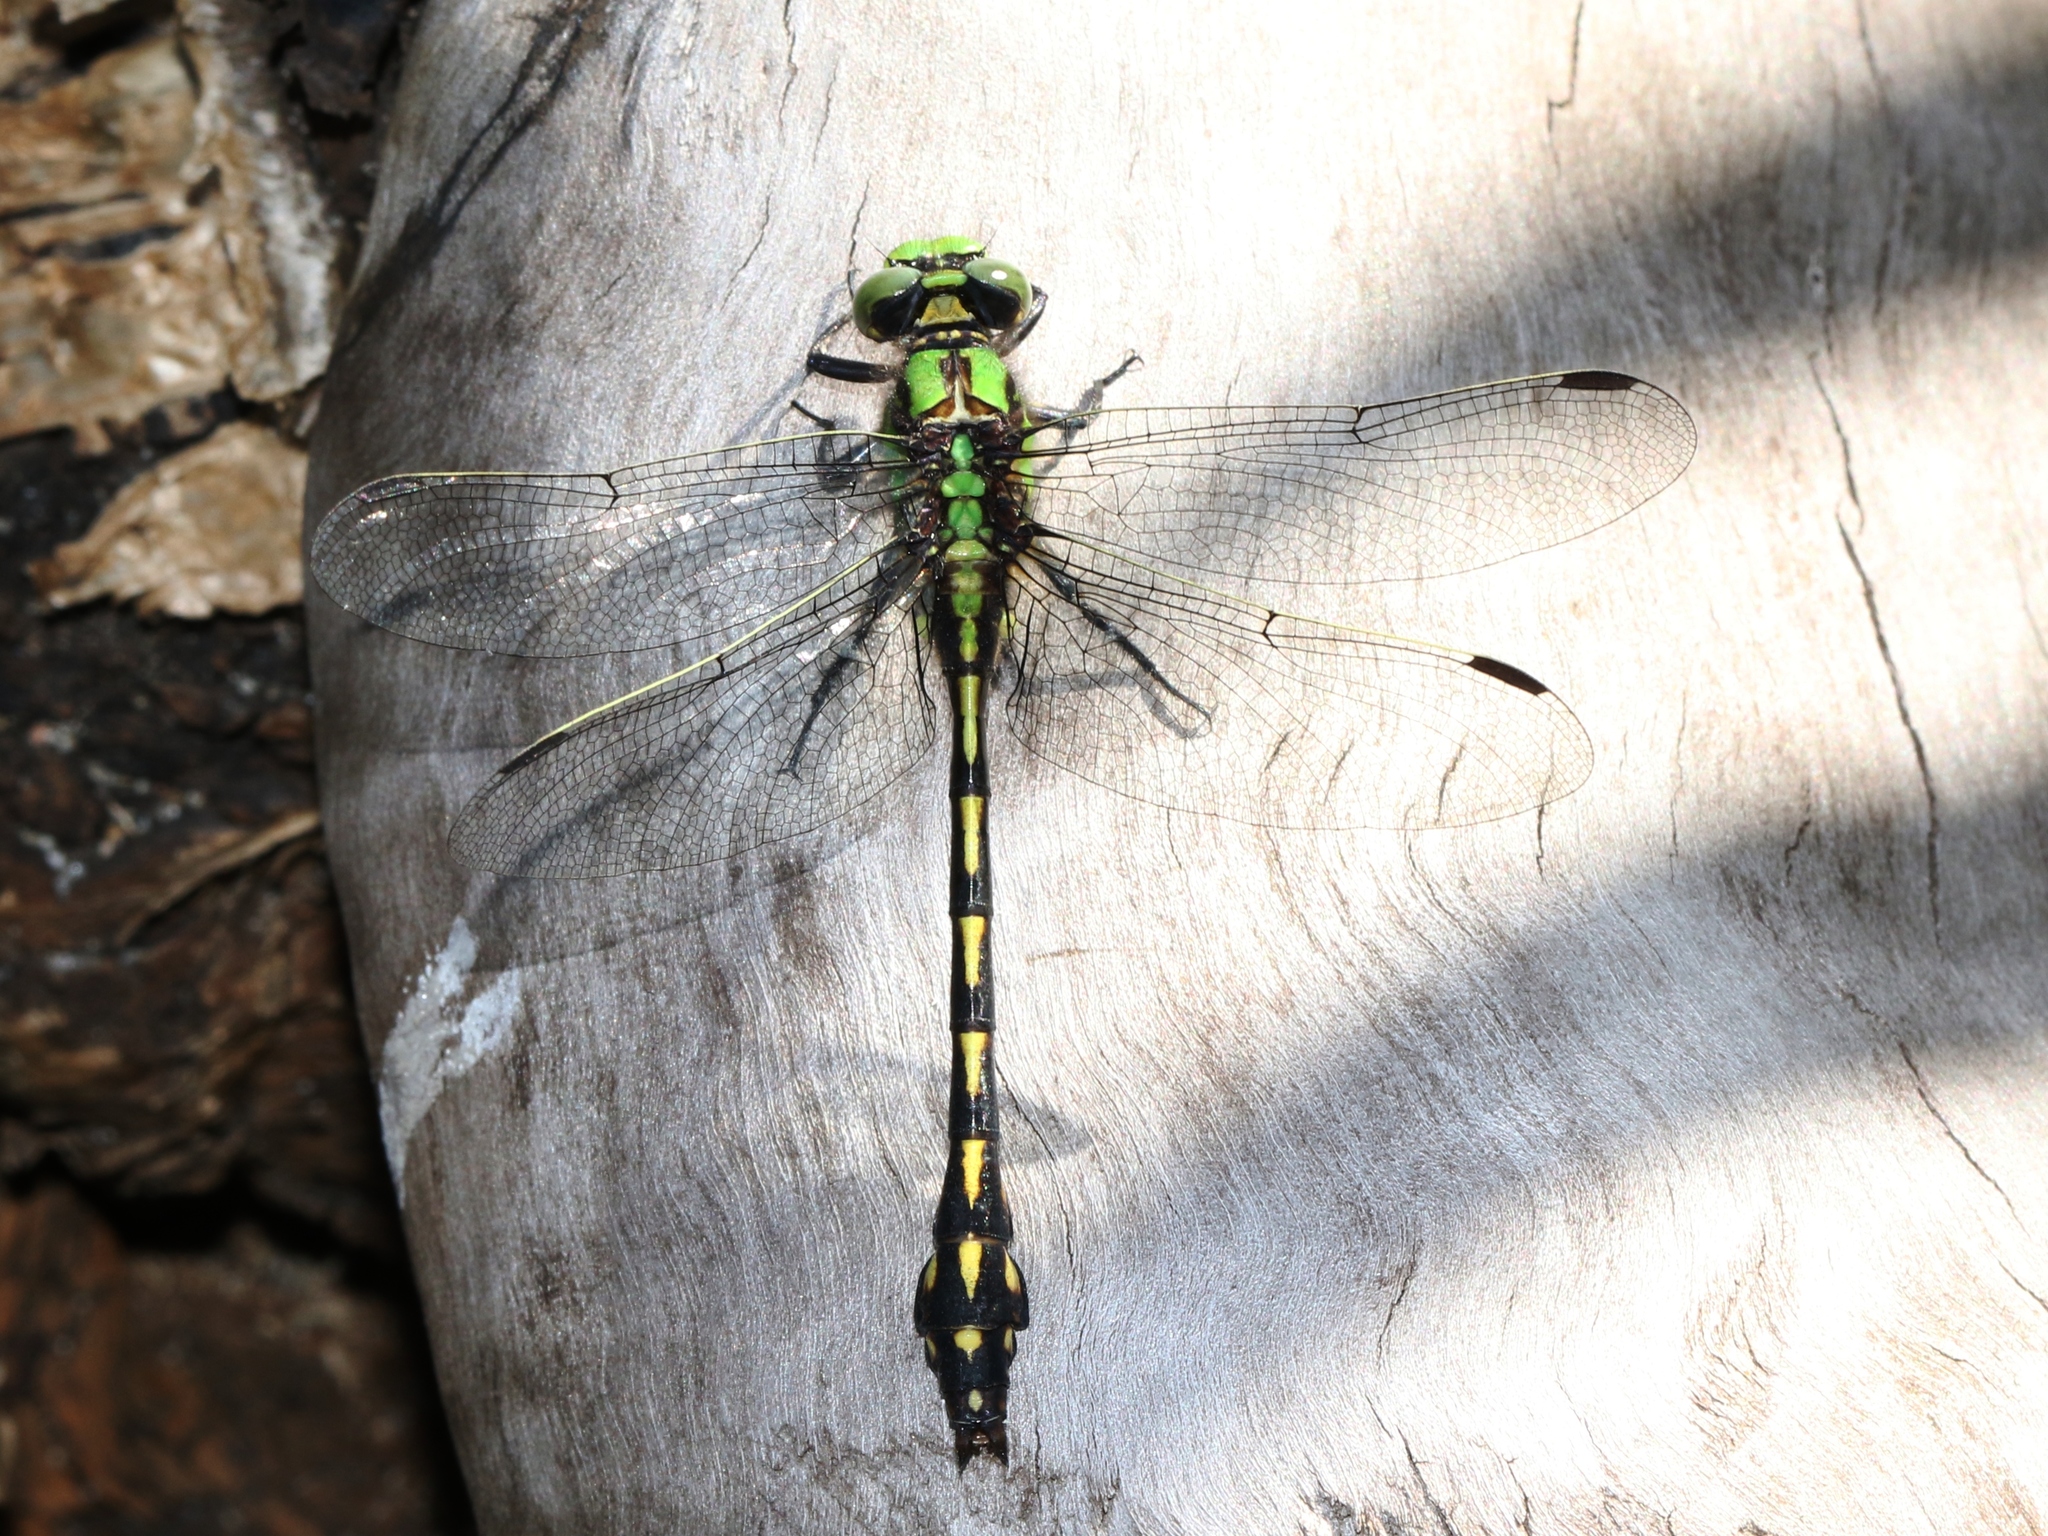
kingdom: Animalia
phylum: Arthropoda
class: Insecta
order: Odonata
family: Gomphidae
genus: Ophiogomphus
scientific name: Ophiogomphus aspersus
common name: Brook snaketail
